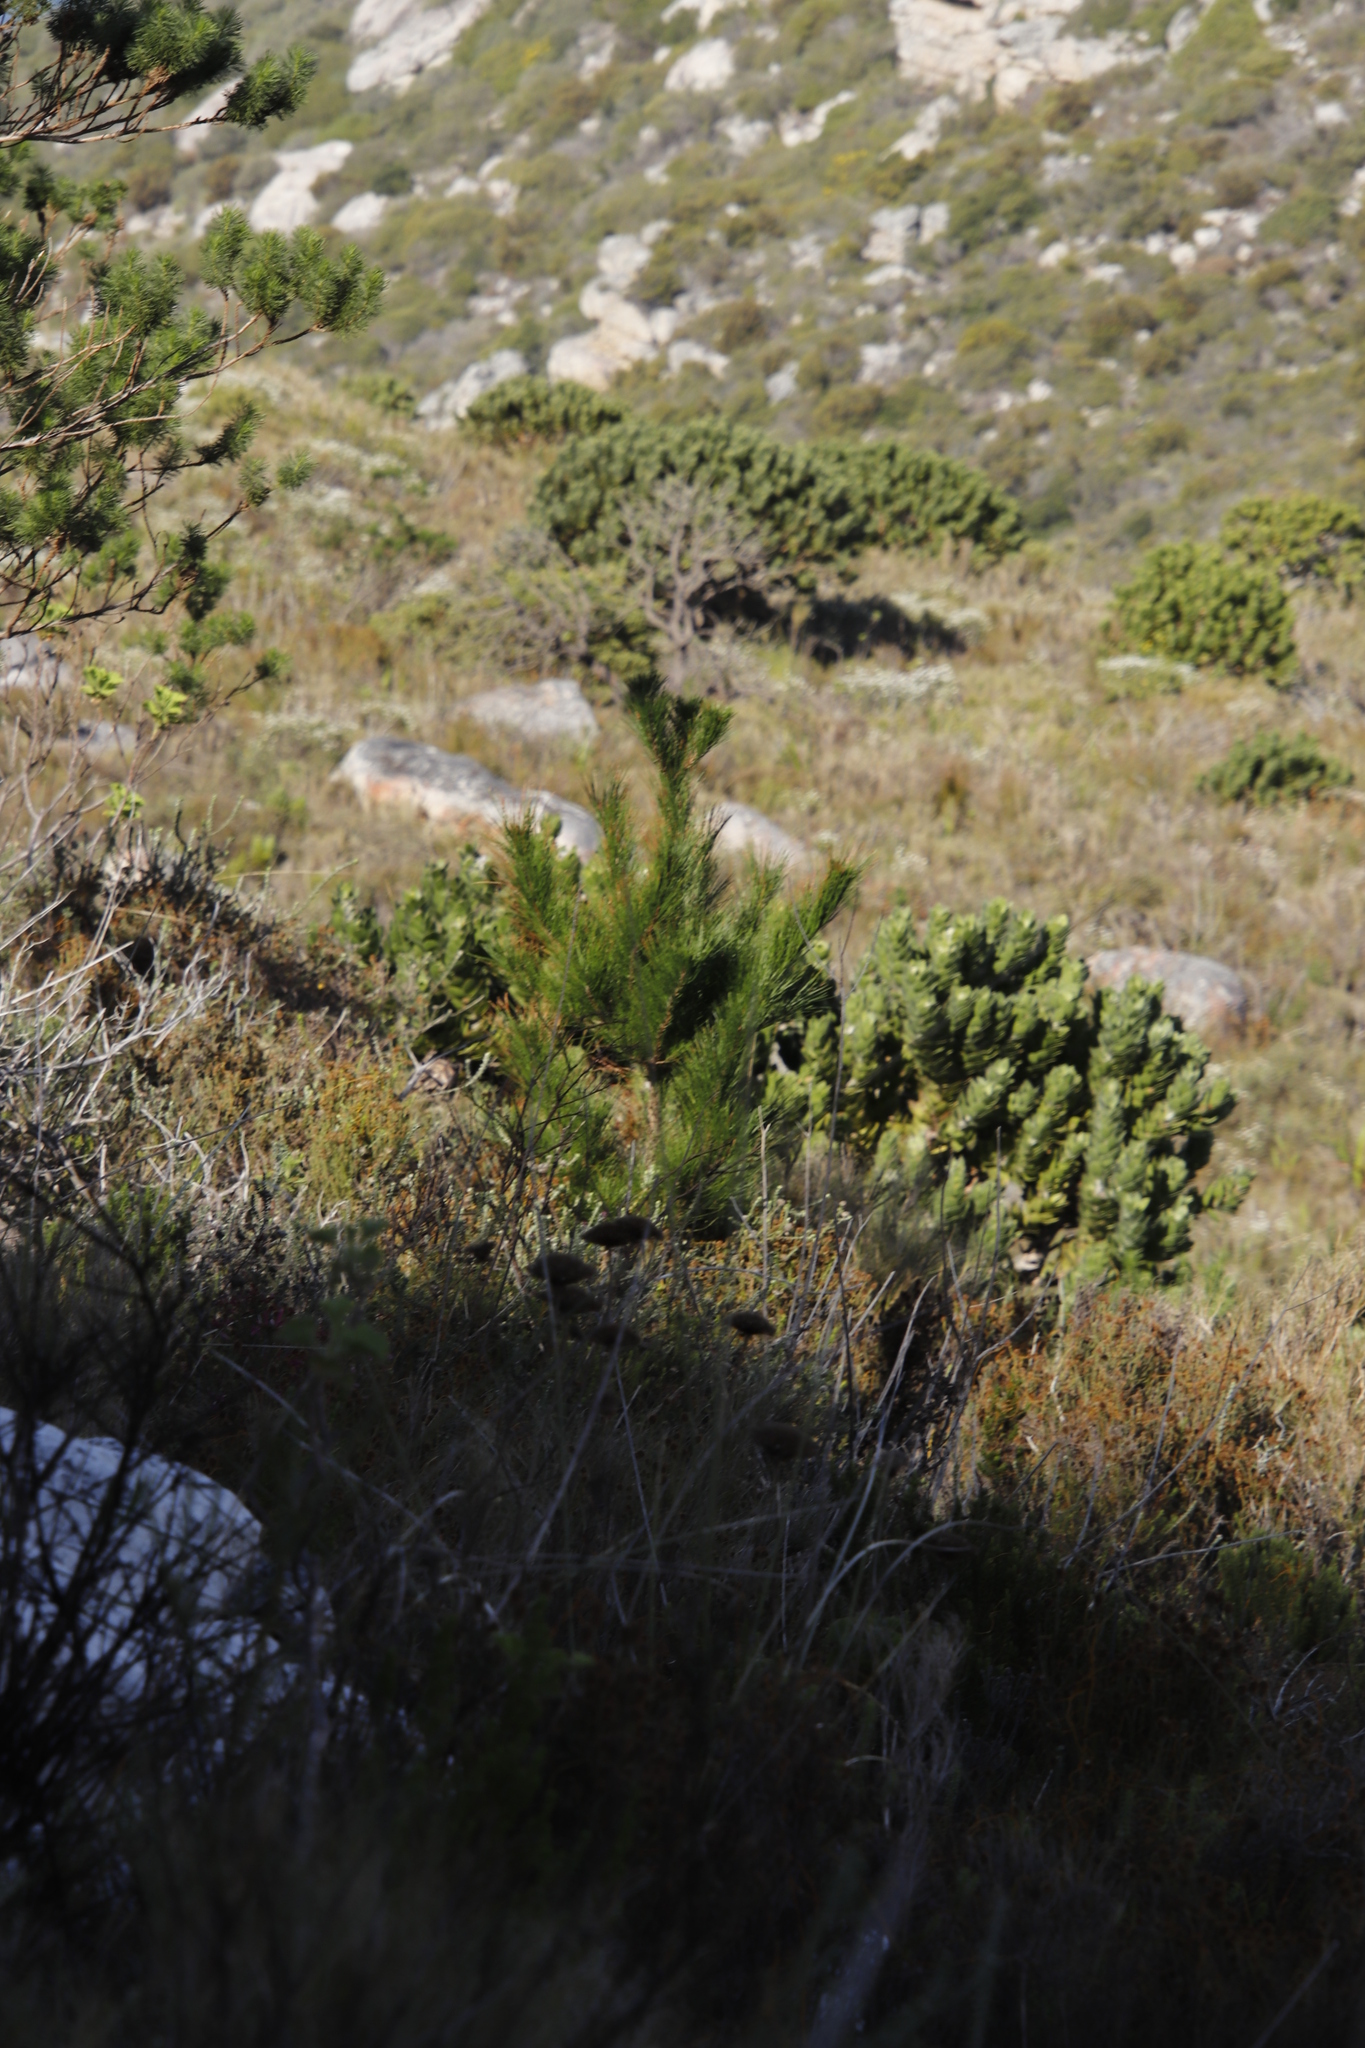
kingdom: Plantae
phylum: Tracheophyta
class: Pinopsida
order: Pinales
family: Pinaceae
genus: Pinus
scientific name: Pinus radiata
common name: Monterey pine
